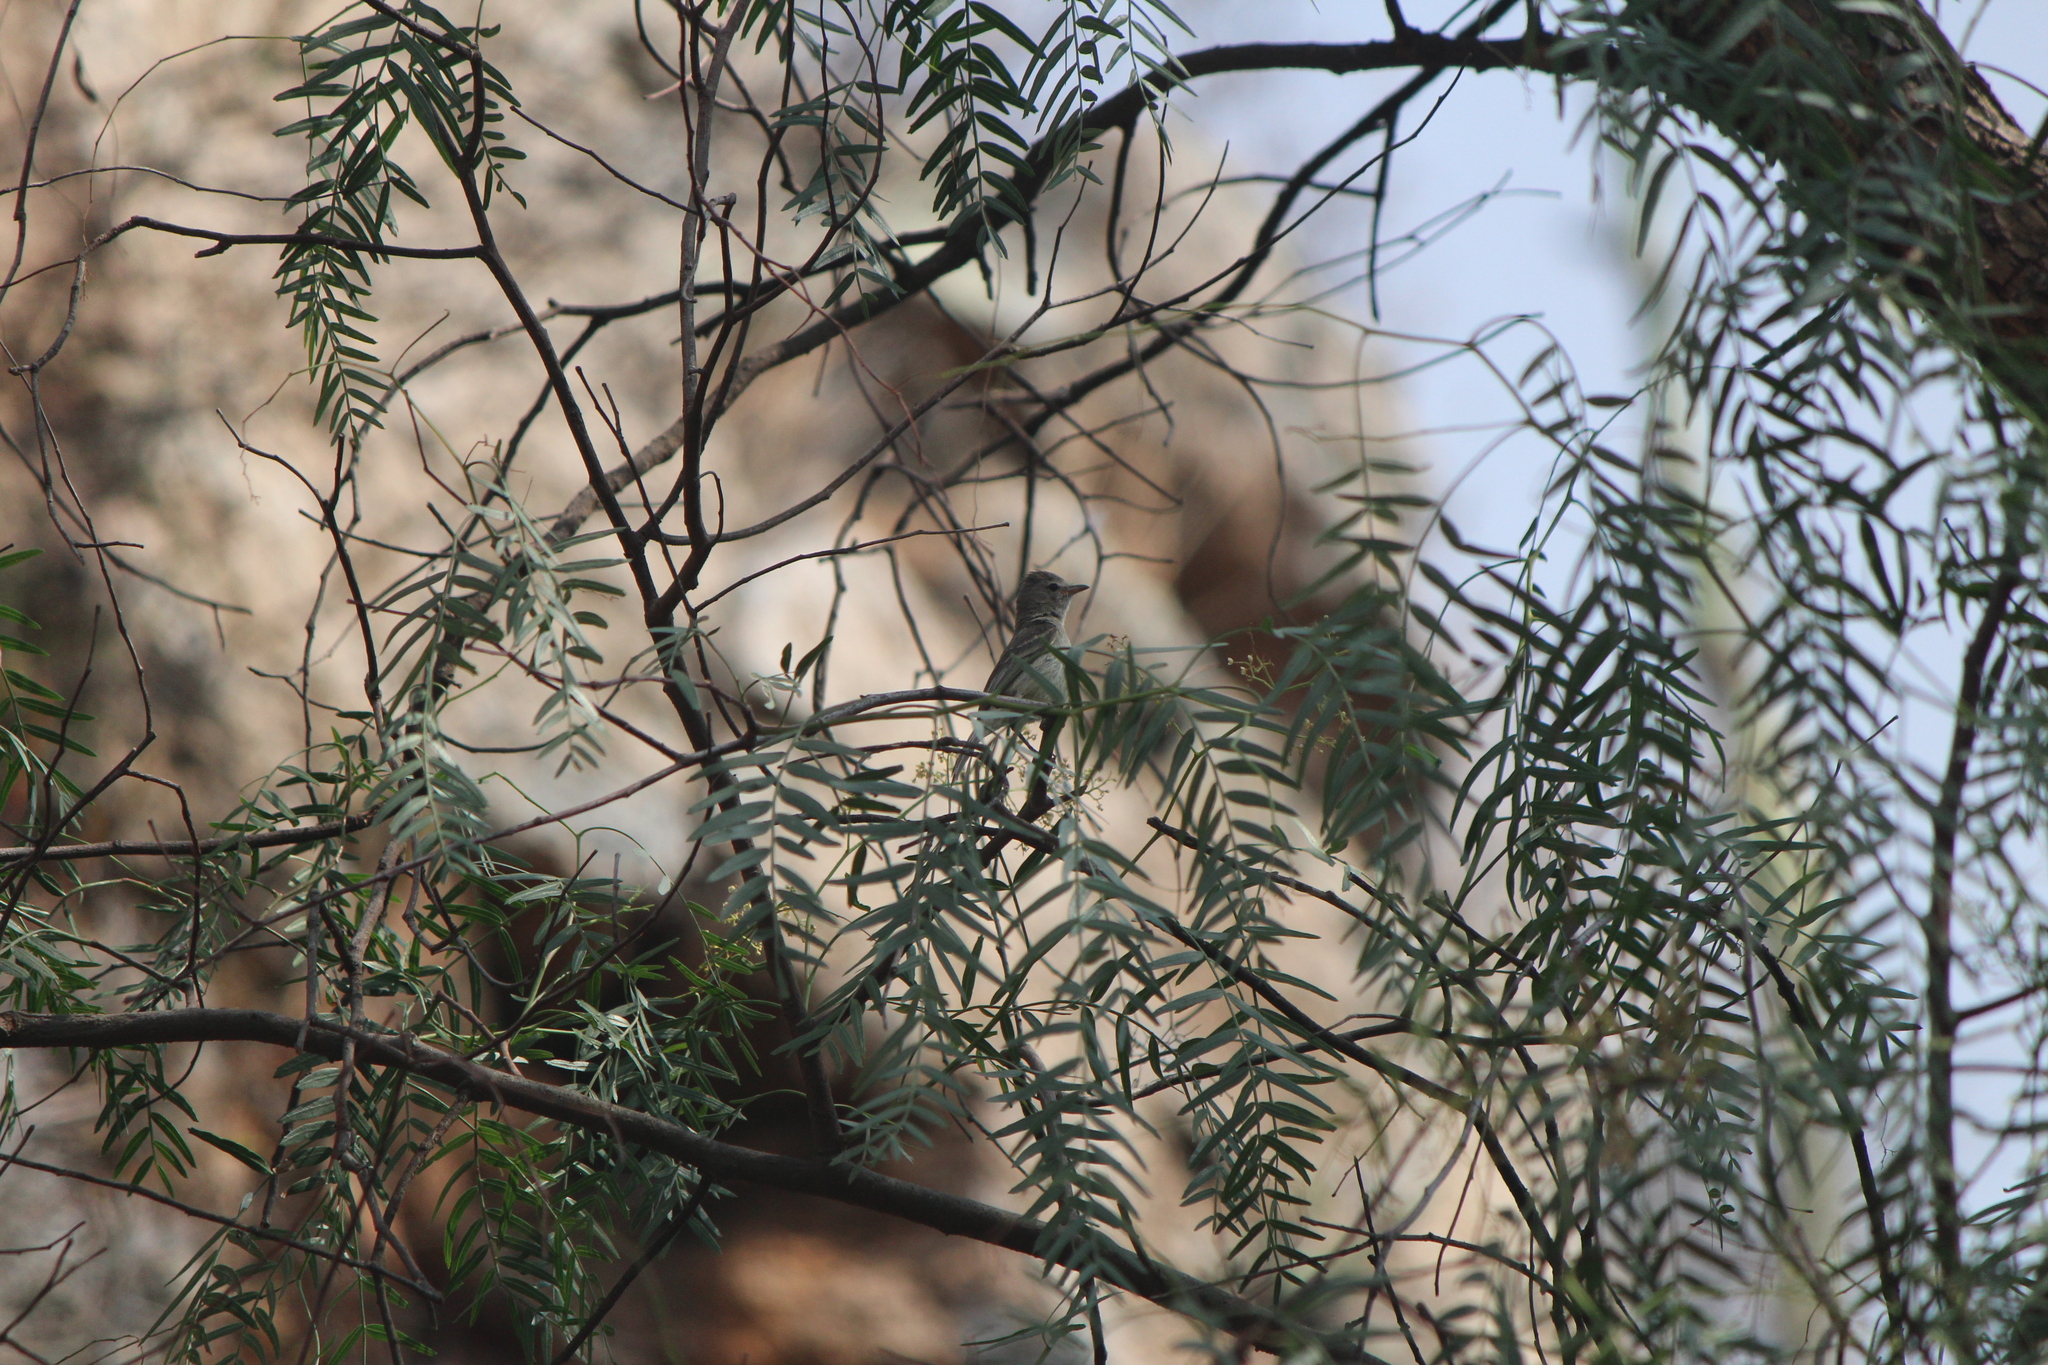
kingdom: Animalia
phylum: Chordata
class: Aves
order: Passeriformes
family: Tyrannidae
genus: Camptostoma
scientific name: Camptostoma imberbe
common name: Northern beardless-tyrannulet
